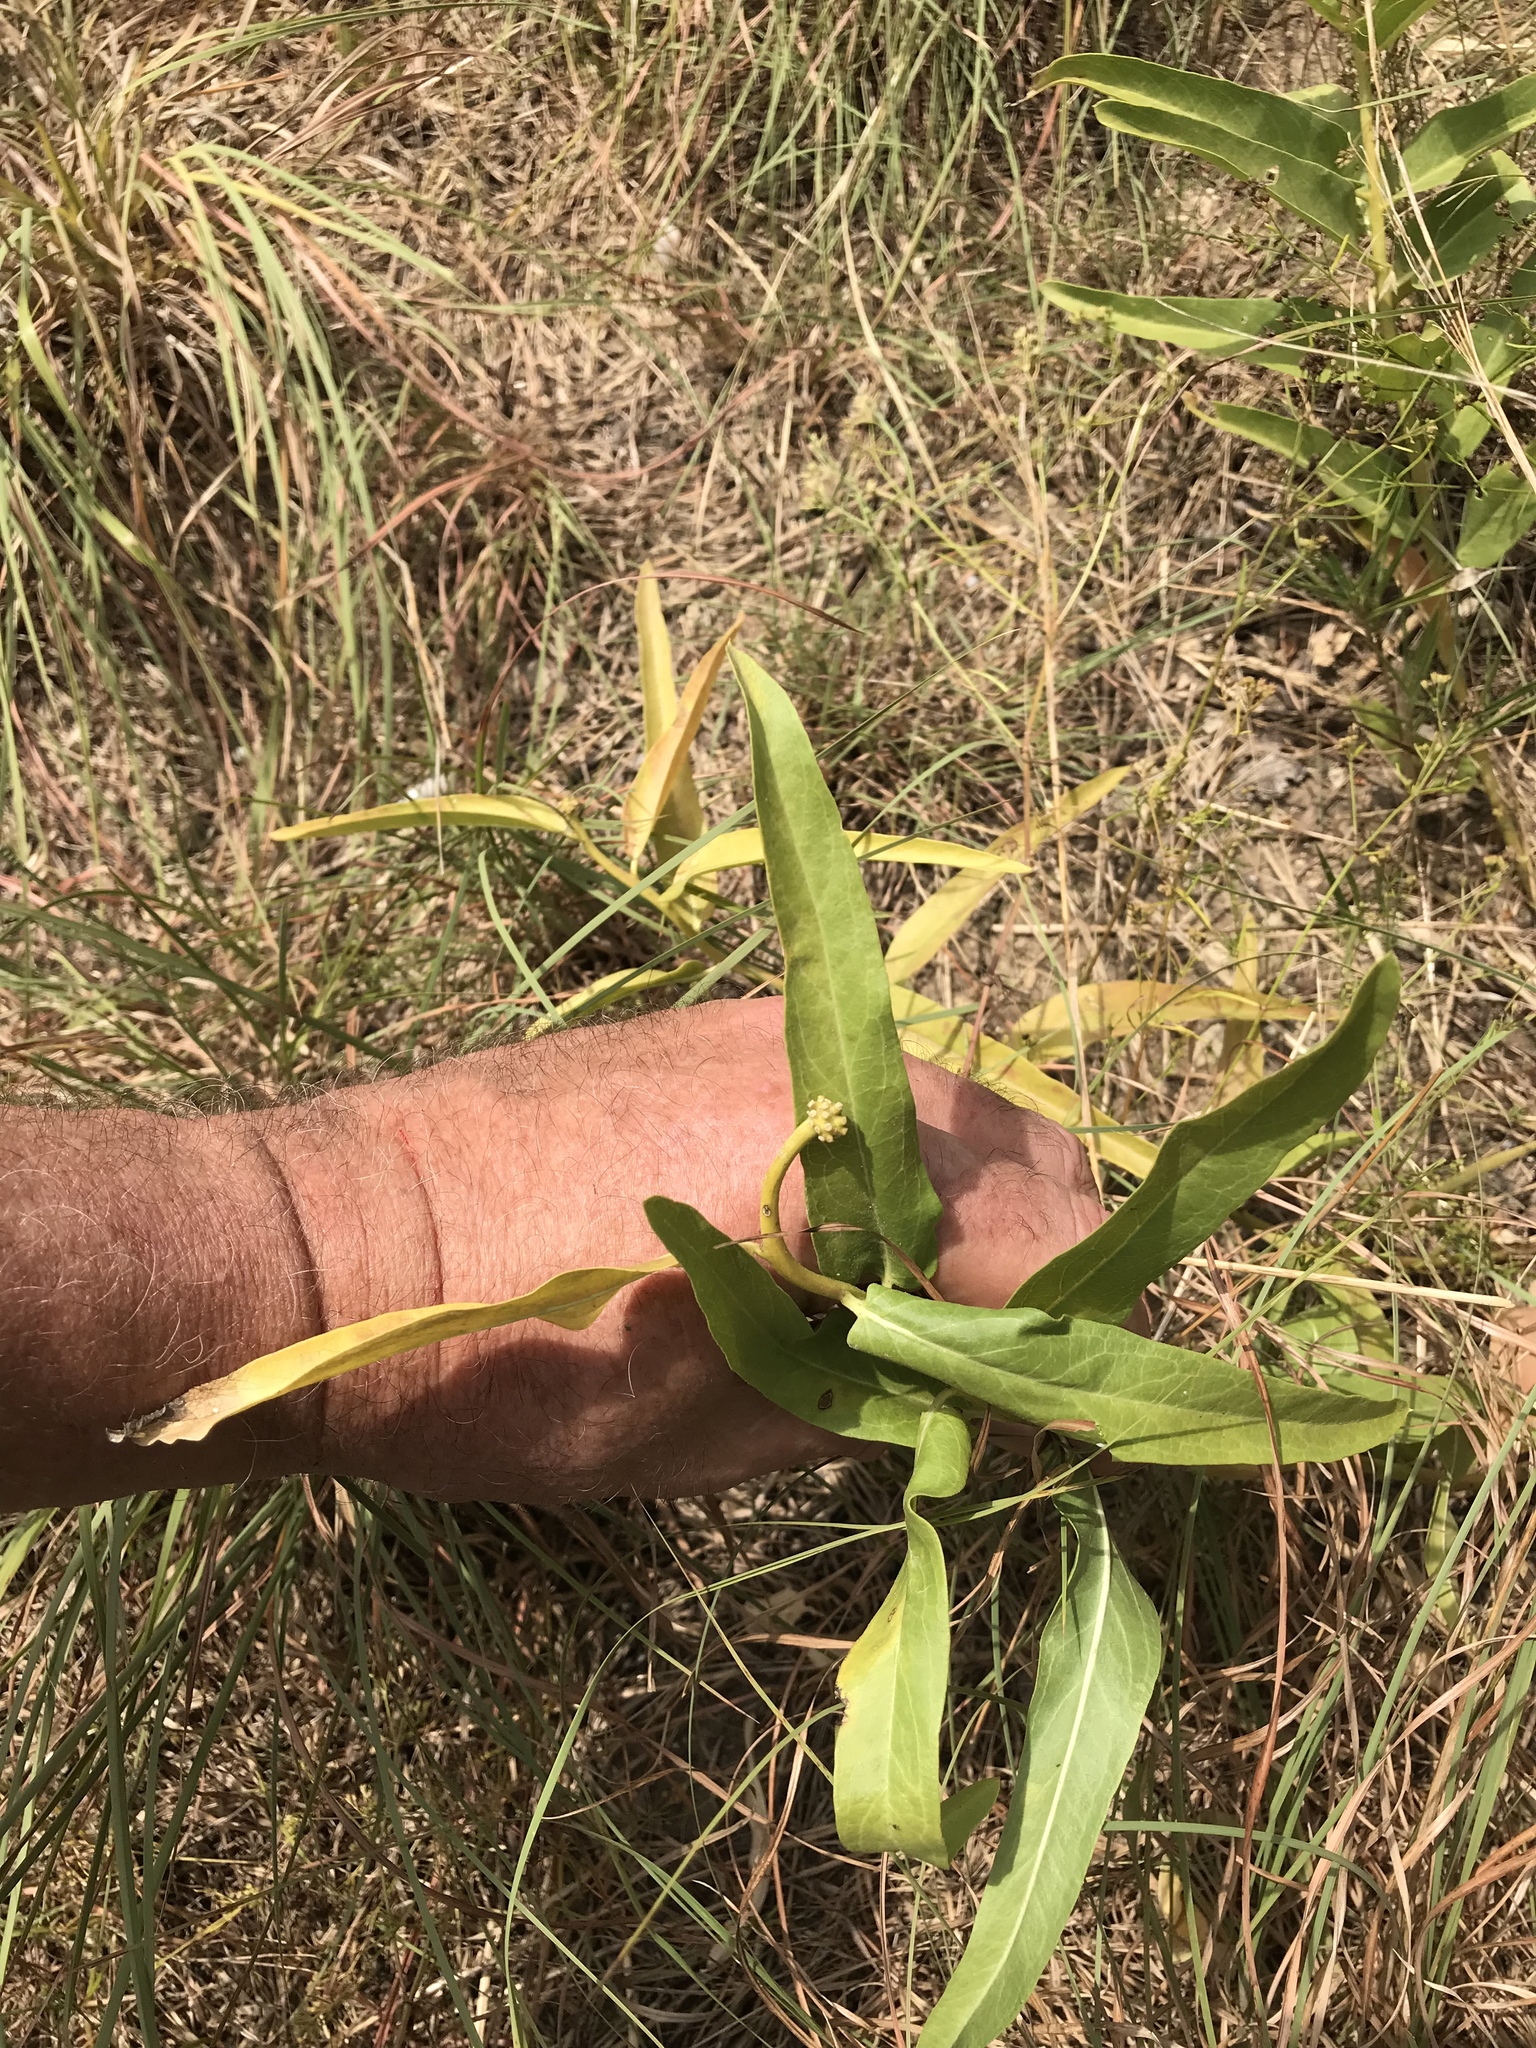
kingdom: Plantae
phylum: Tracheophyta
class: Magnoliopsida
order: Gentianales
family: Apocynaceae
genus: Asclepias
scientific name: Asclepias asperula
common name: Antelope horns
